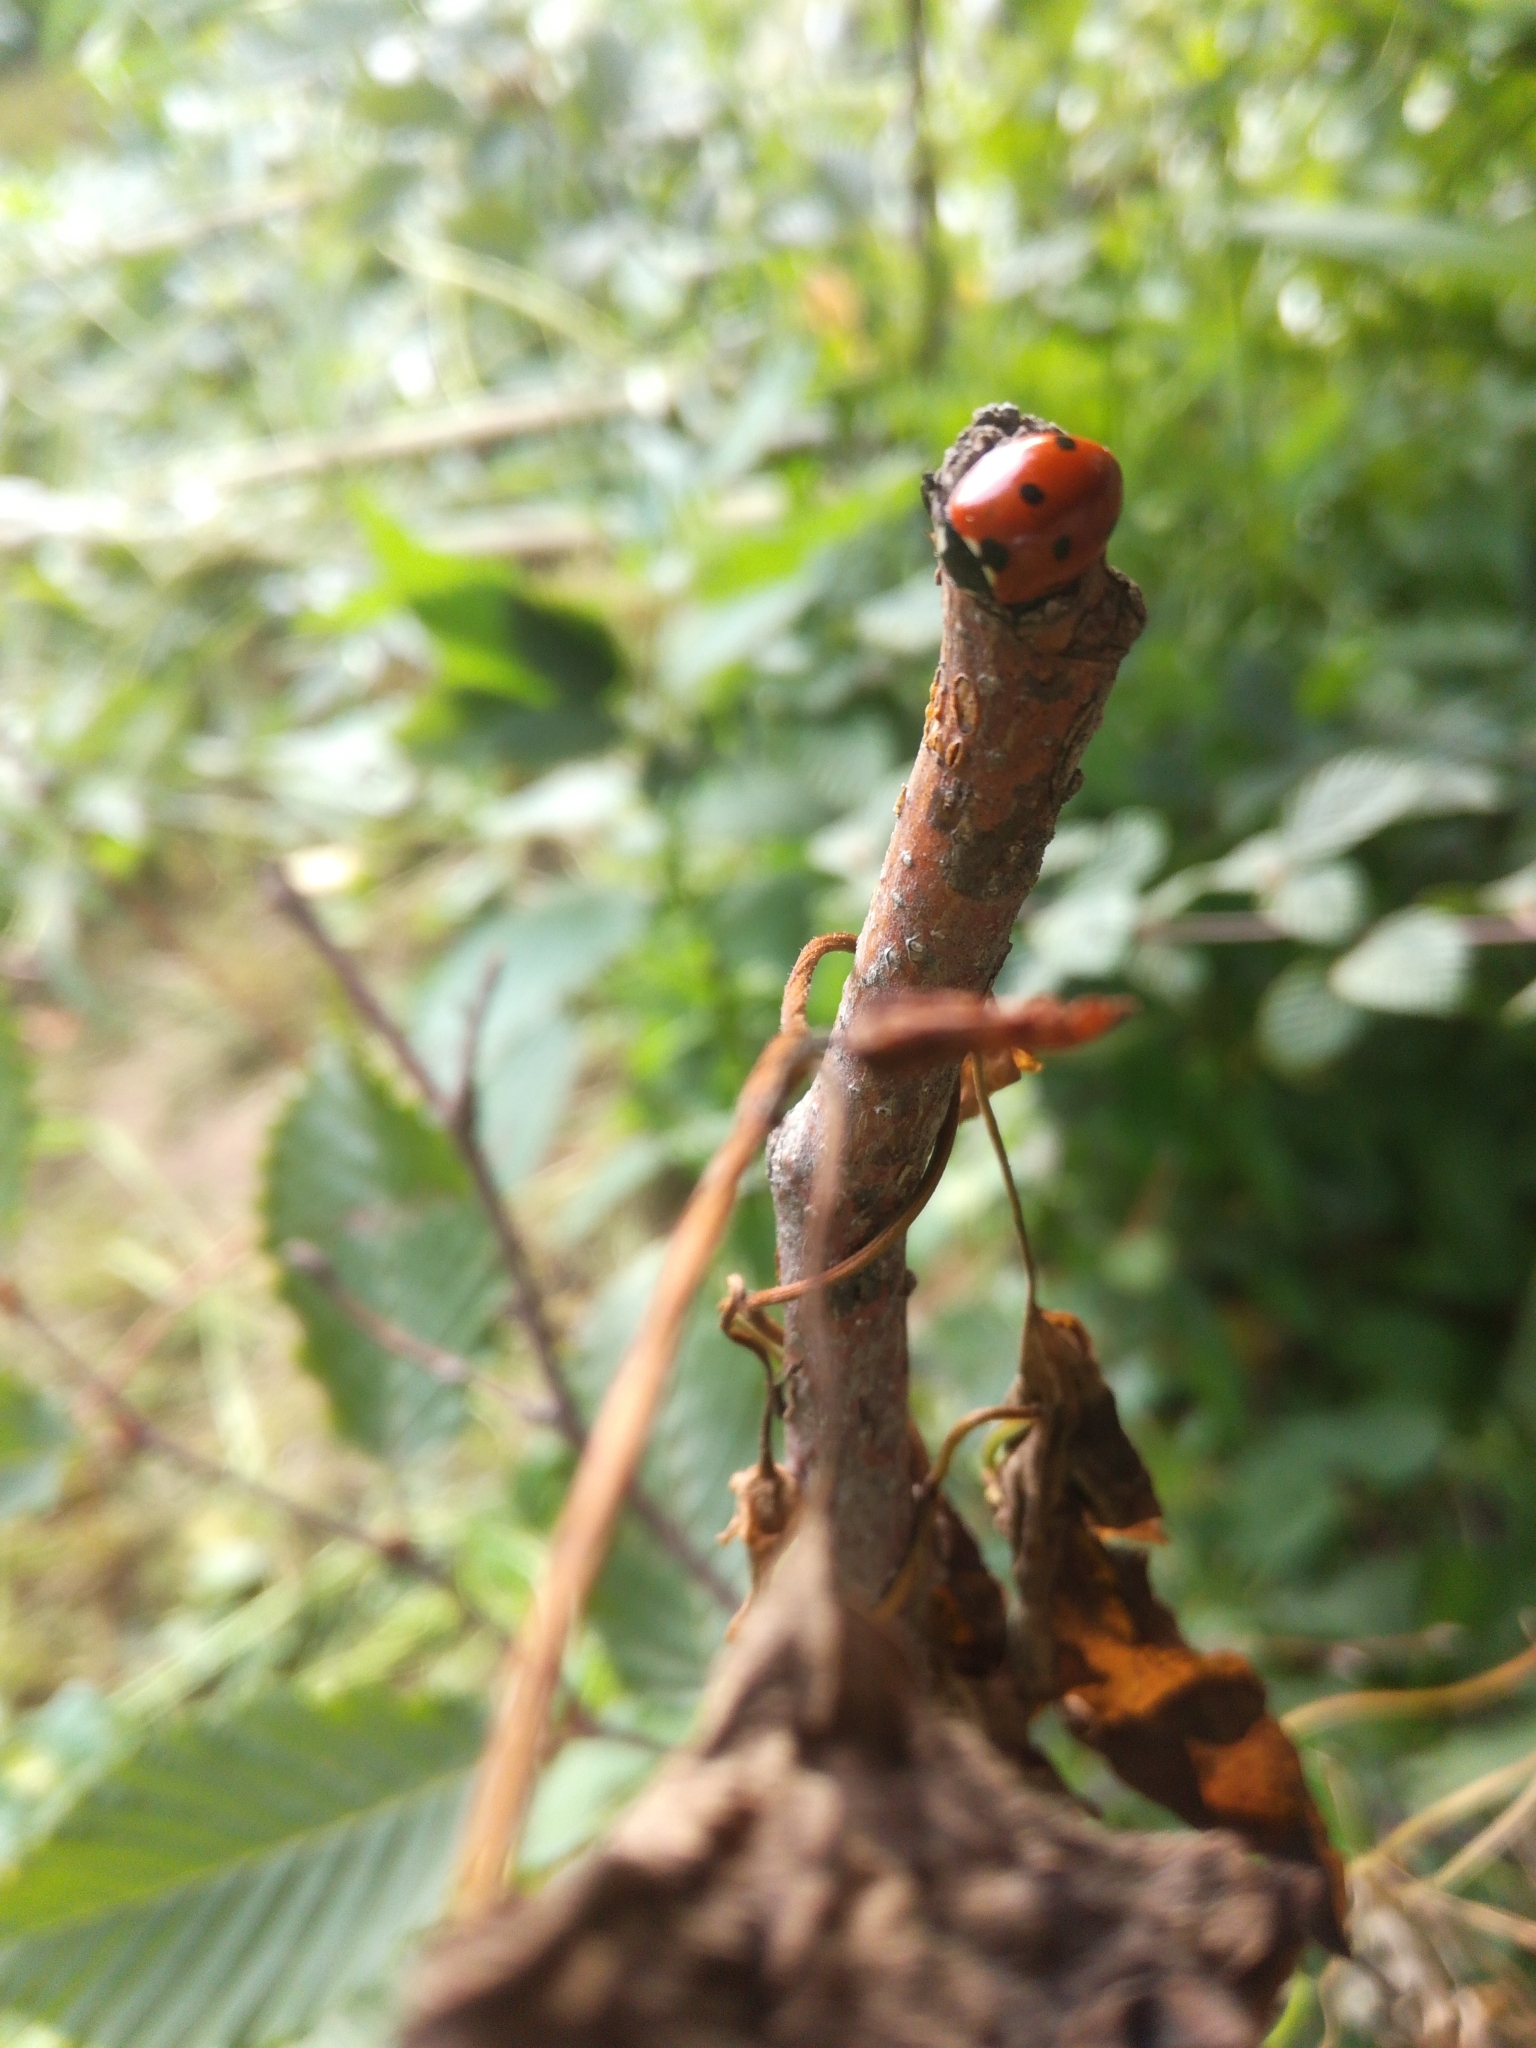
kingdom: Animalia
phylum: Arthropoda
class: Insecta
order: Coleoptera
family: Coccinellidae
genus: Coccinella
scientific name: Coccinella septempunctata
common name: Sevenspotted lady beetle
